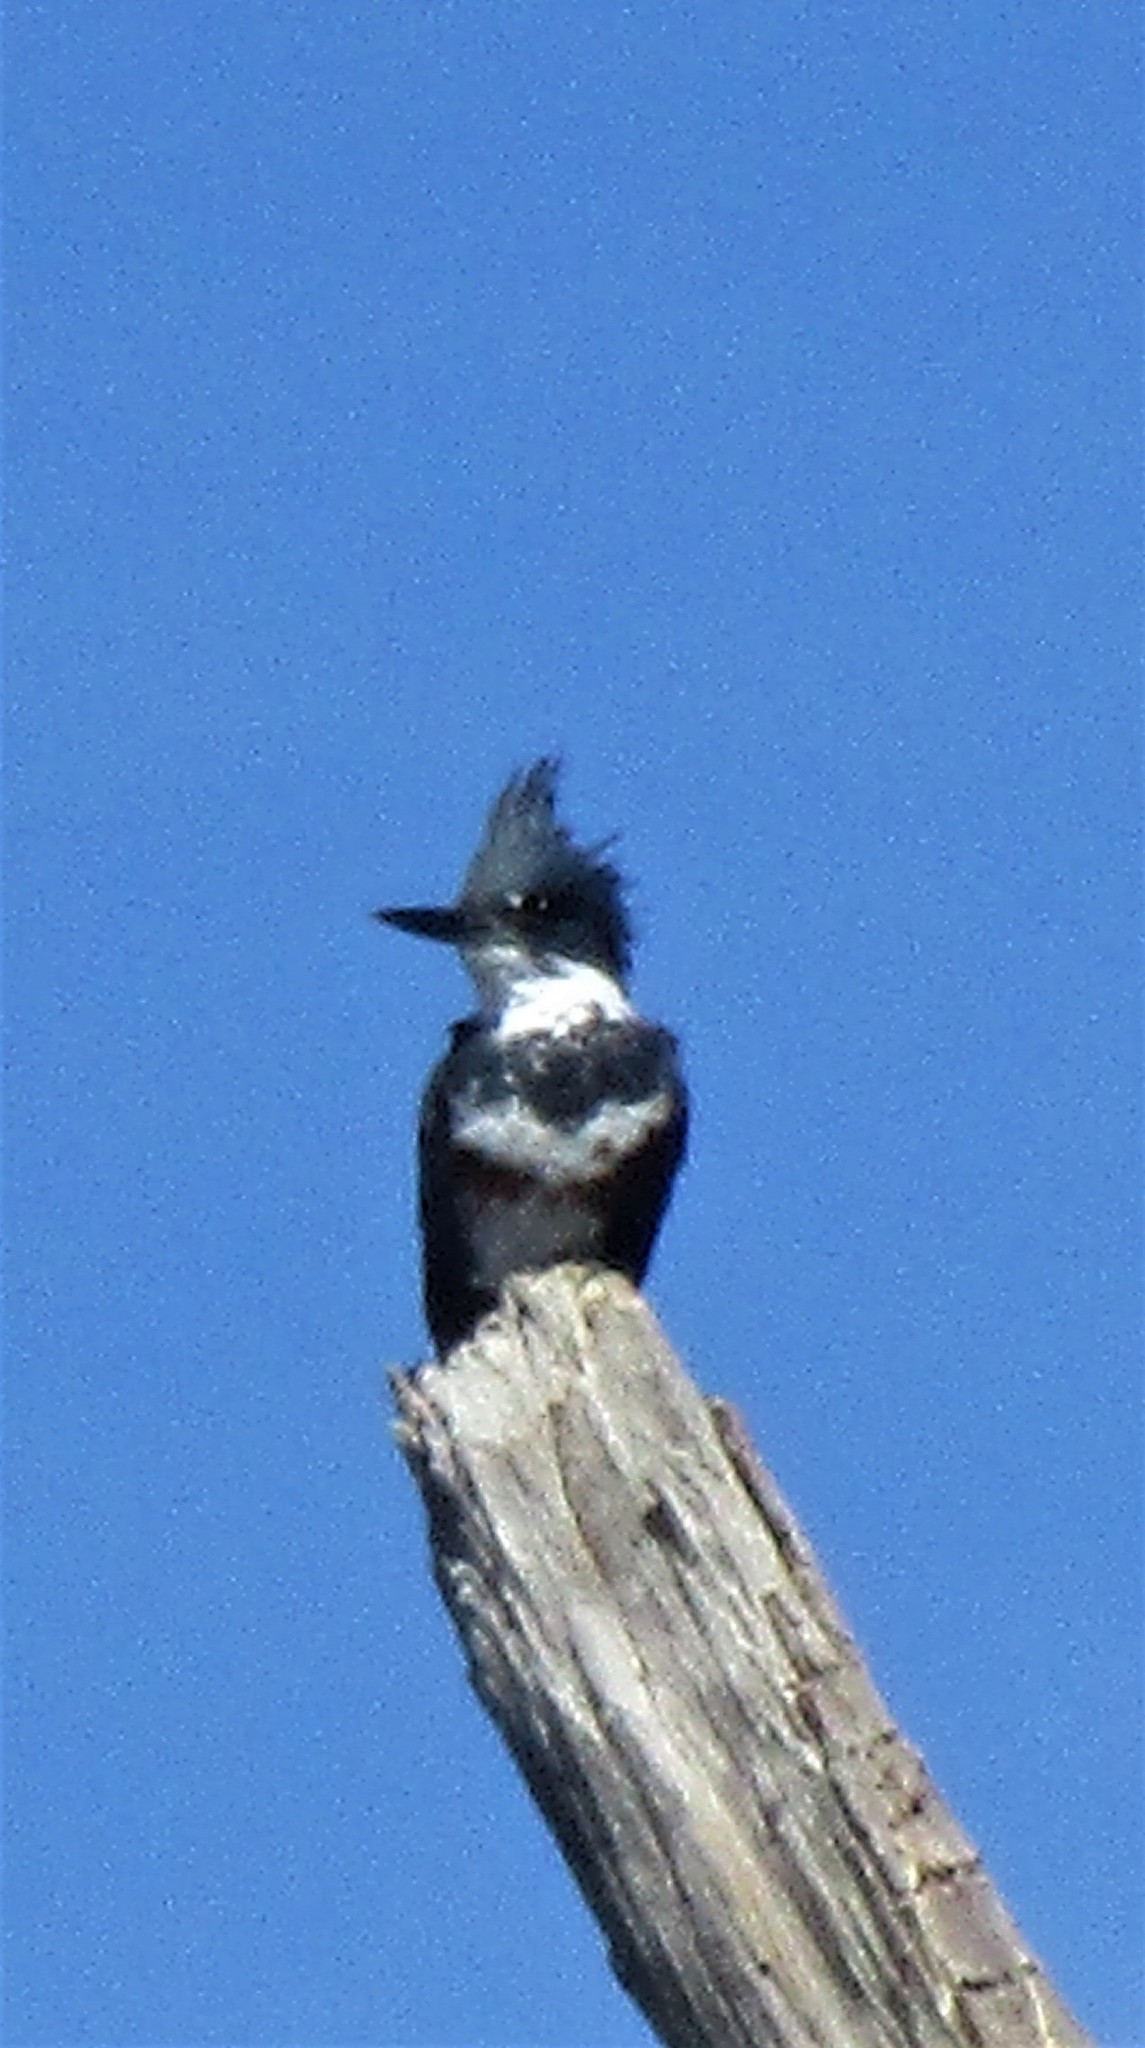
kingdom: Animalia
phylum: Chordata
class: Aves
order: Coraciiformes
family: Alcedinidae
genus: Megaceryle
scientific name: Megaceryle alcyon
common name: Belted kingfisher
